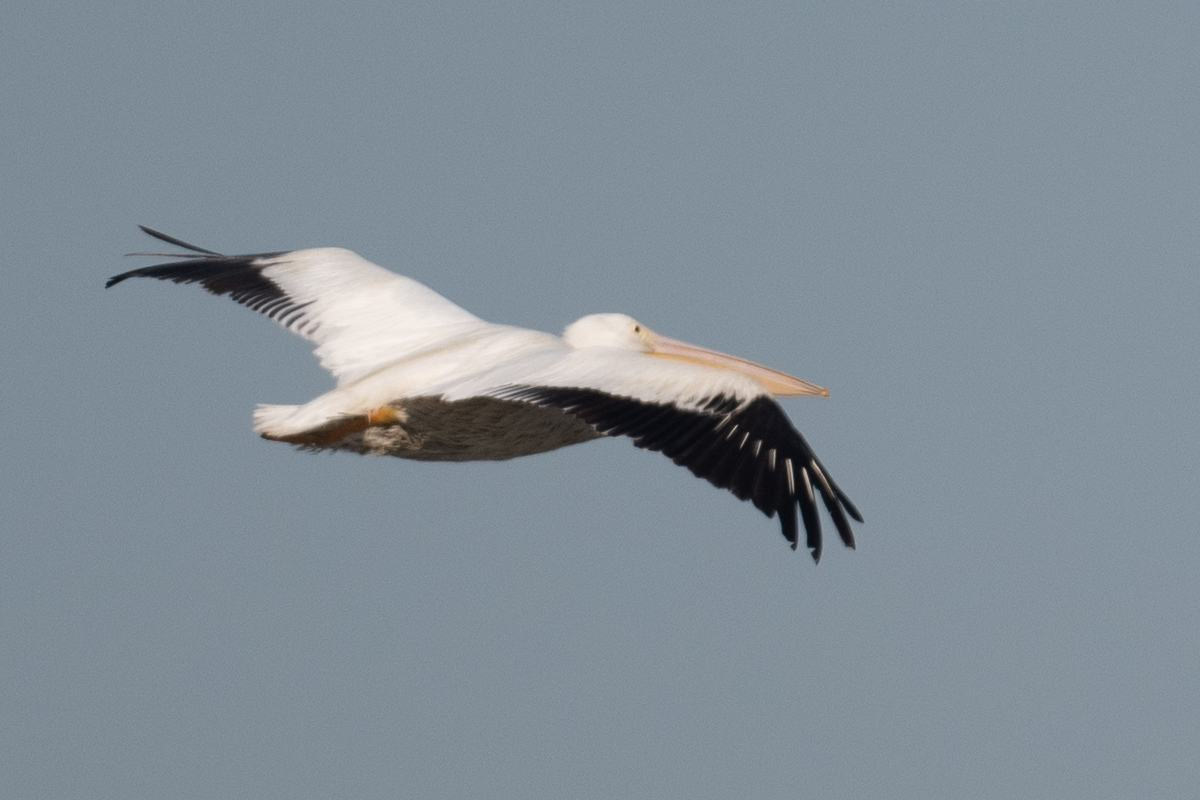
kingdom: Animalia
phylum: Chordata
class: Aves
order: Pelecaniformes
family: Pelecanidae
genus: Pelecanus
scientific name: Pelecanus erythrorhynchos
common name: American white pelican
